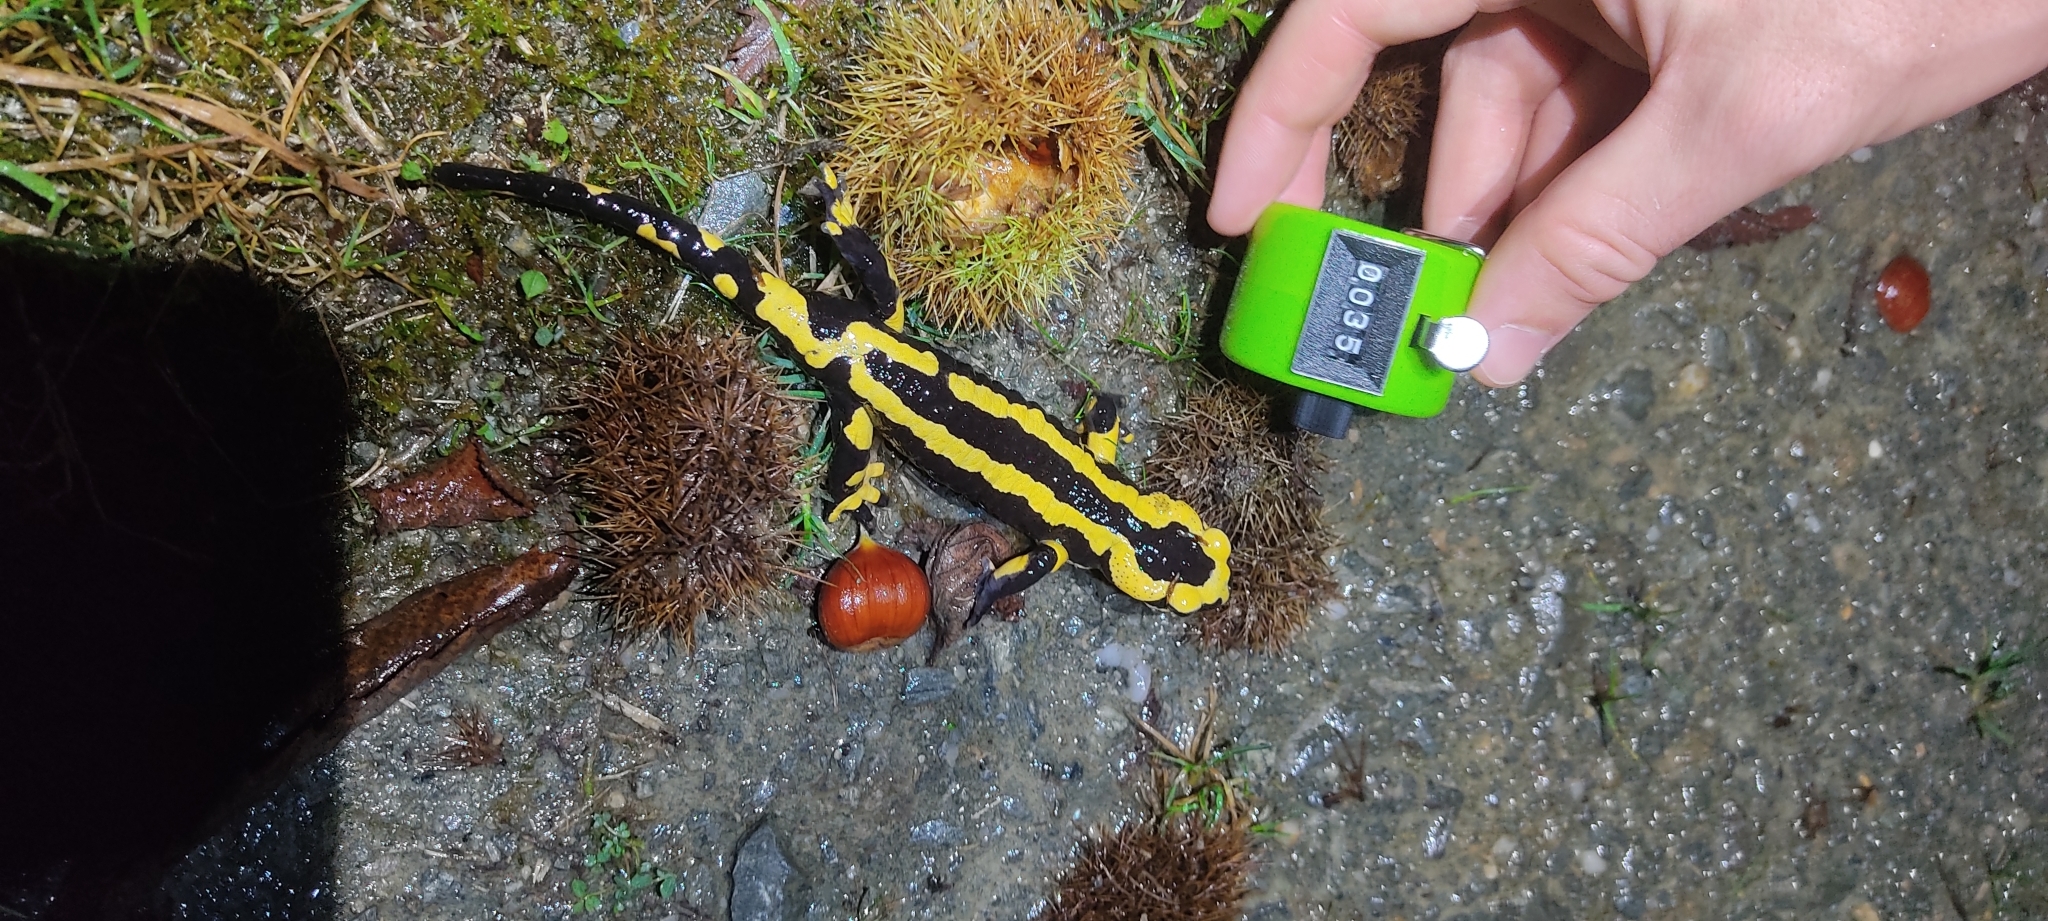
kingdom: Animalia
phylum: Chordata
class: Amphibia
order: Caudata
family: Salamandridae
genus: Salamandra
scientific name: Salamandra salamandra
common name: Fire salamander
